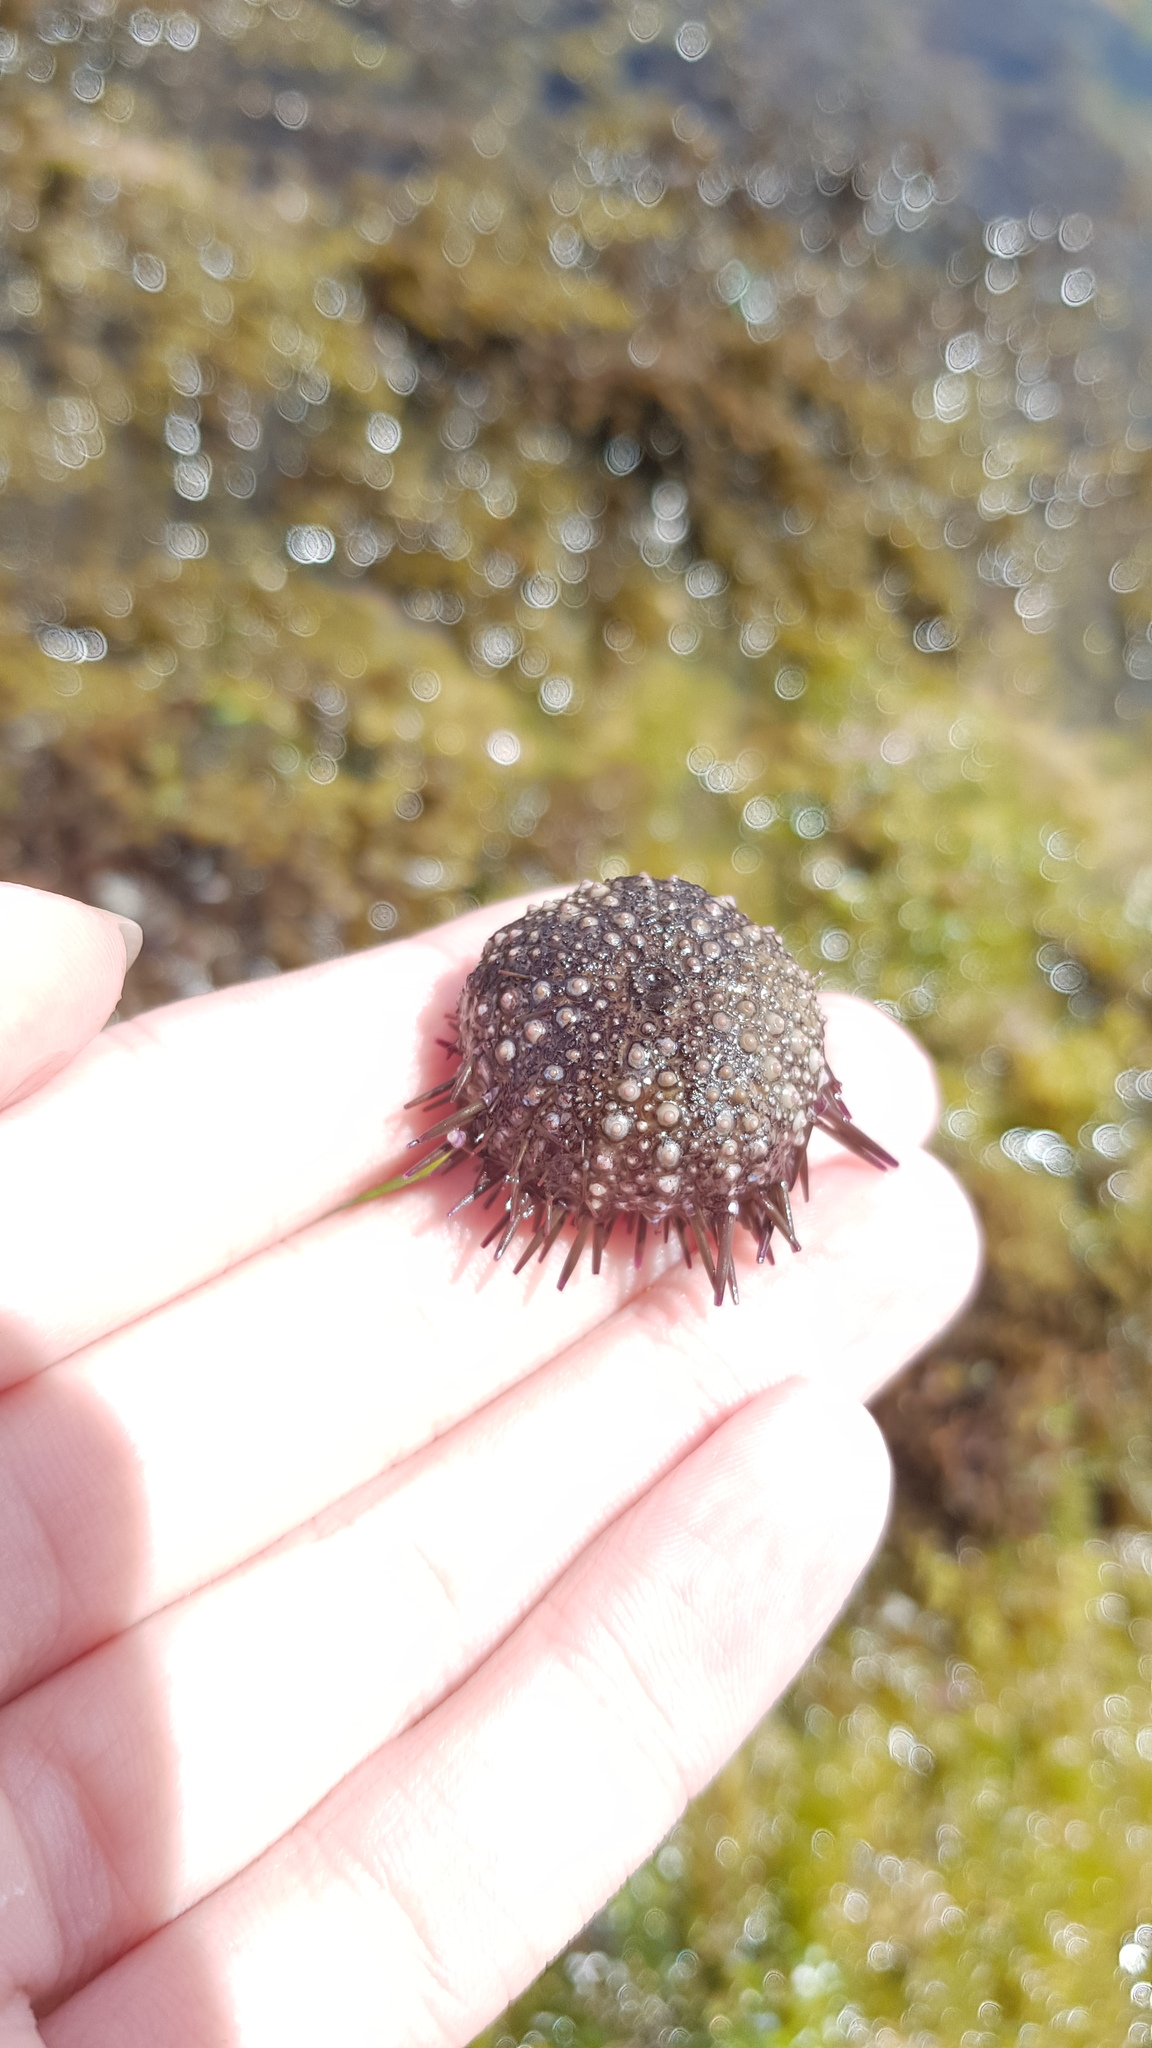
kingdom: Animalia
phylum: Echinodermata
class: Echinoidea
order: Camarodonta
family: Echinometridae
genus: Heliocidaris
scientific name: Heliocidaris erythrogramma
